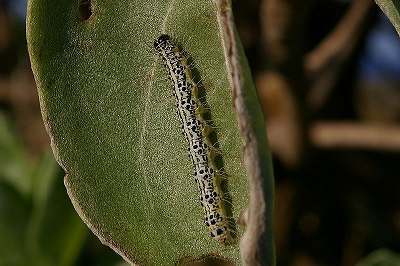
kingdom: Animalia
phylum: Arthropoda
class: Insecta
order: Lepidoptera
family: Erebidae
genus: Utetheisa
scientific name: Utetheisa inconstans
